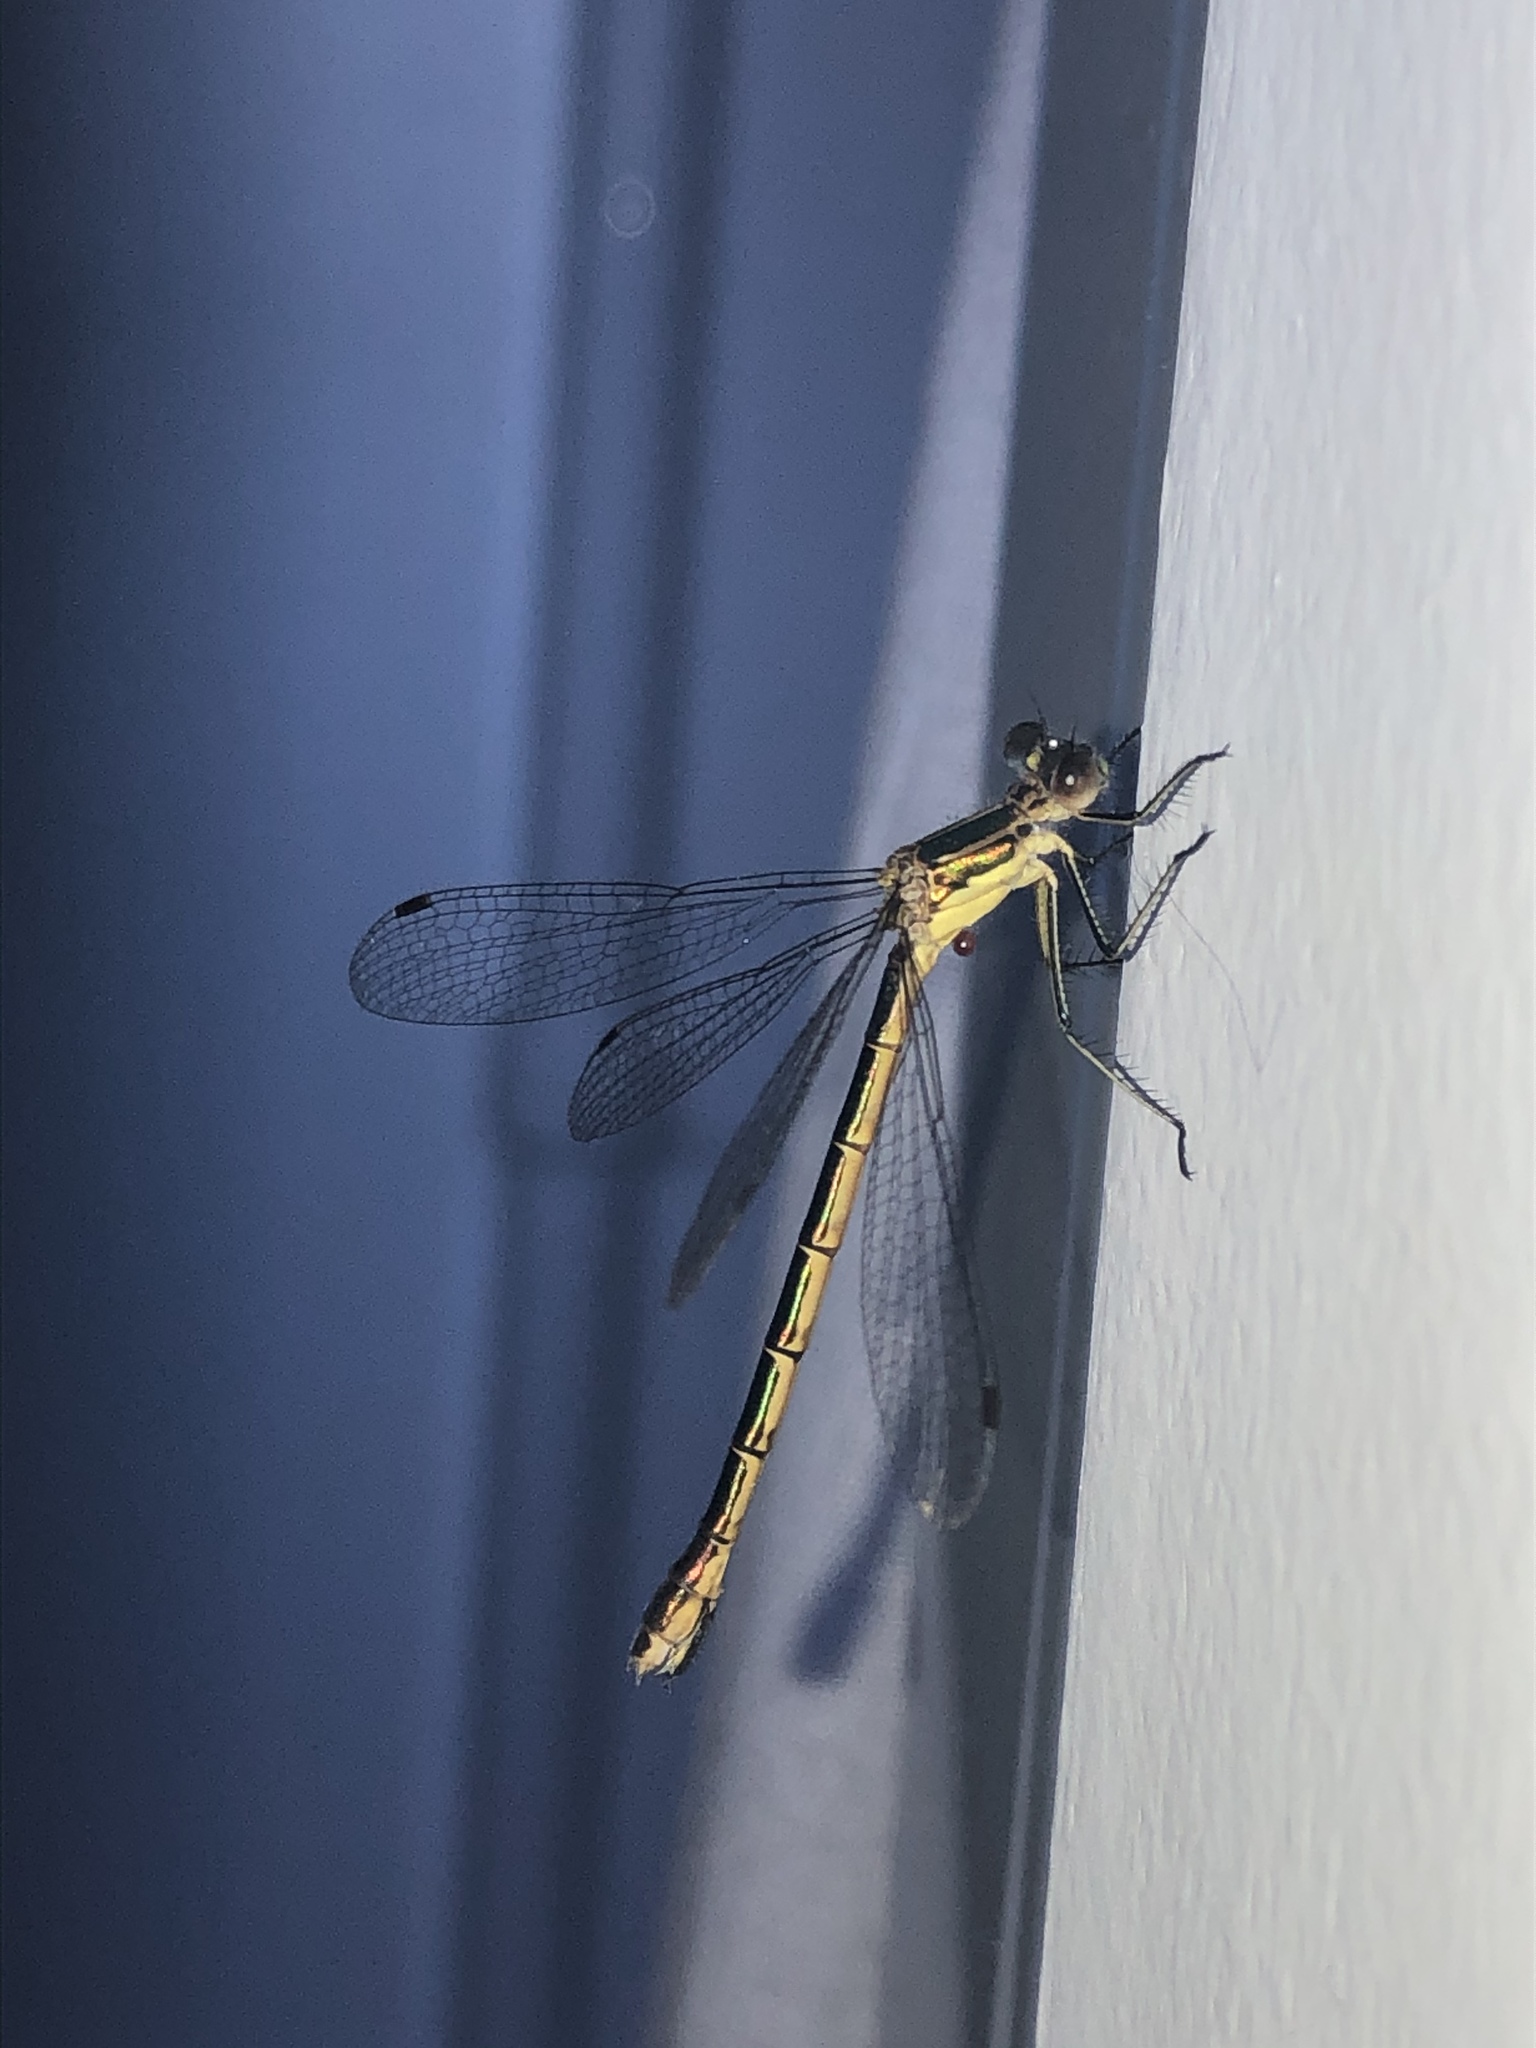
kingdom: Animalia
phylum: Arthropoda
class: Insecta
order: Odonata
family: Lestidae
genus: Lestes
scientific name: Lestes dryas
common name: Scarce emerald damselfly
